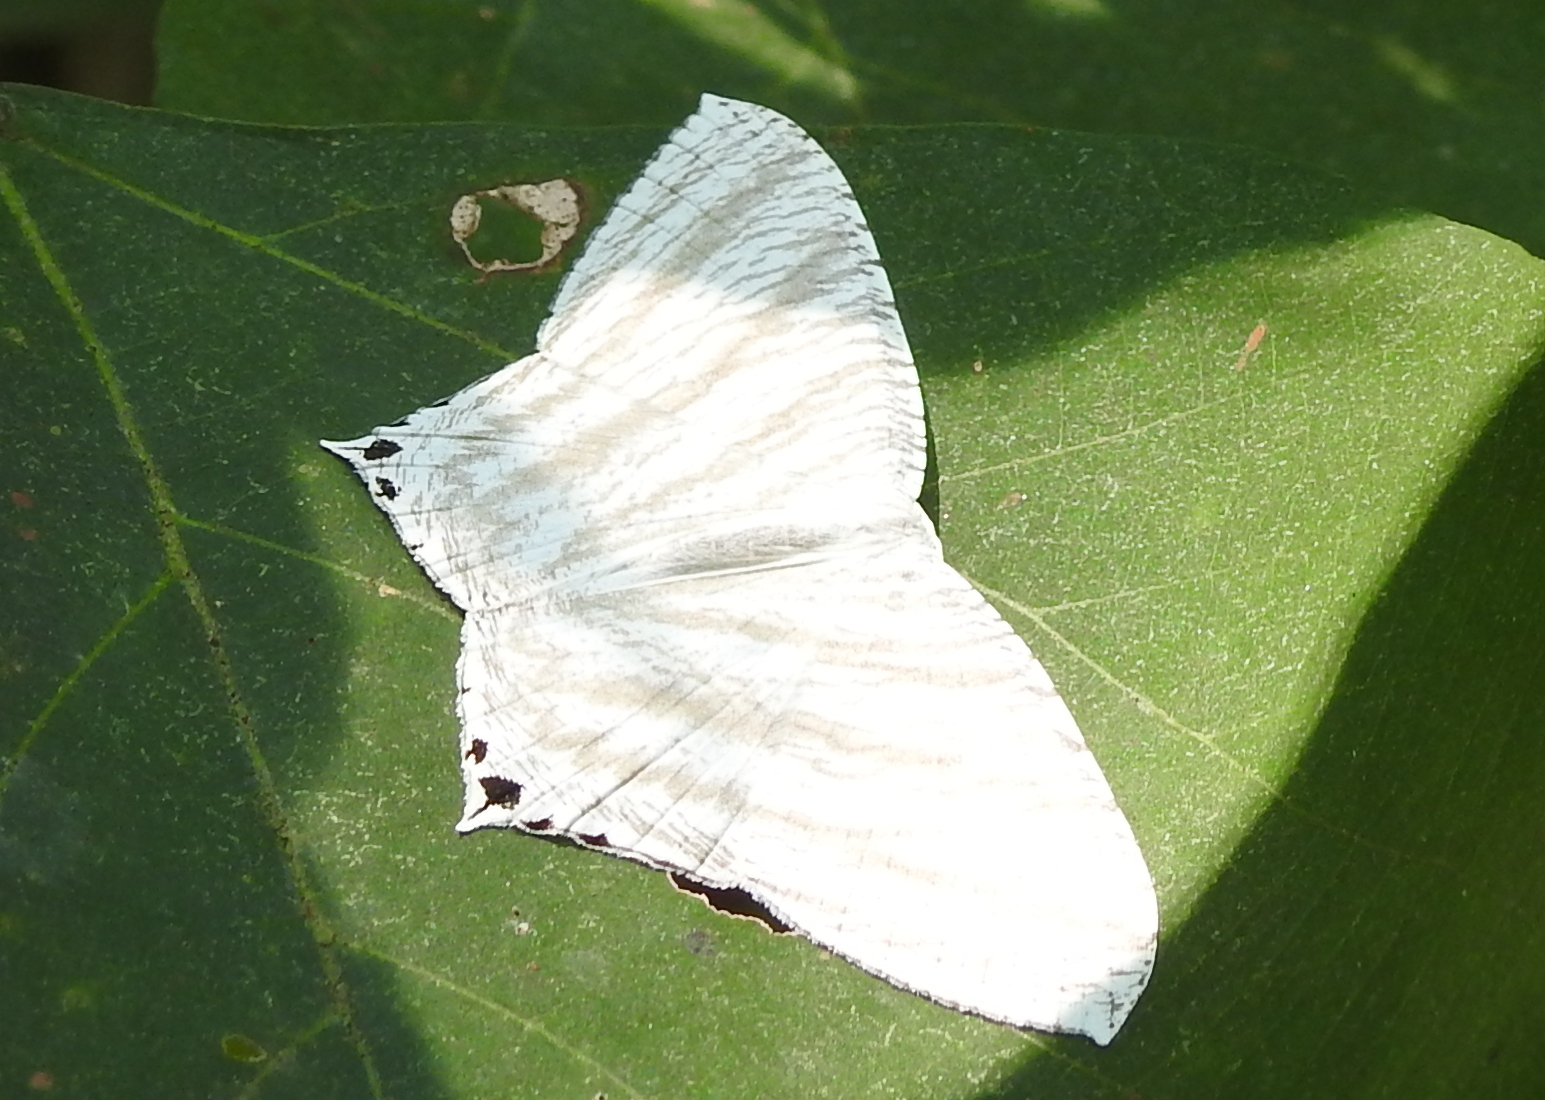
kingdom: Animalia
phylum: Arthropoda
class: Insecta
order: Lepidoptera
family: Uraniidae
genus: Micronia
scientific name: Micronia aculeata
